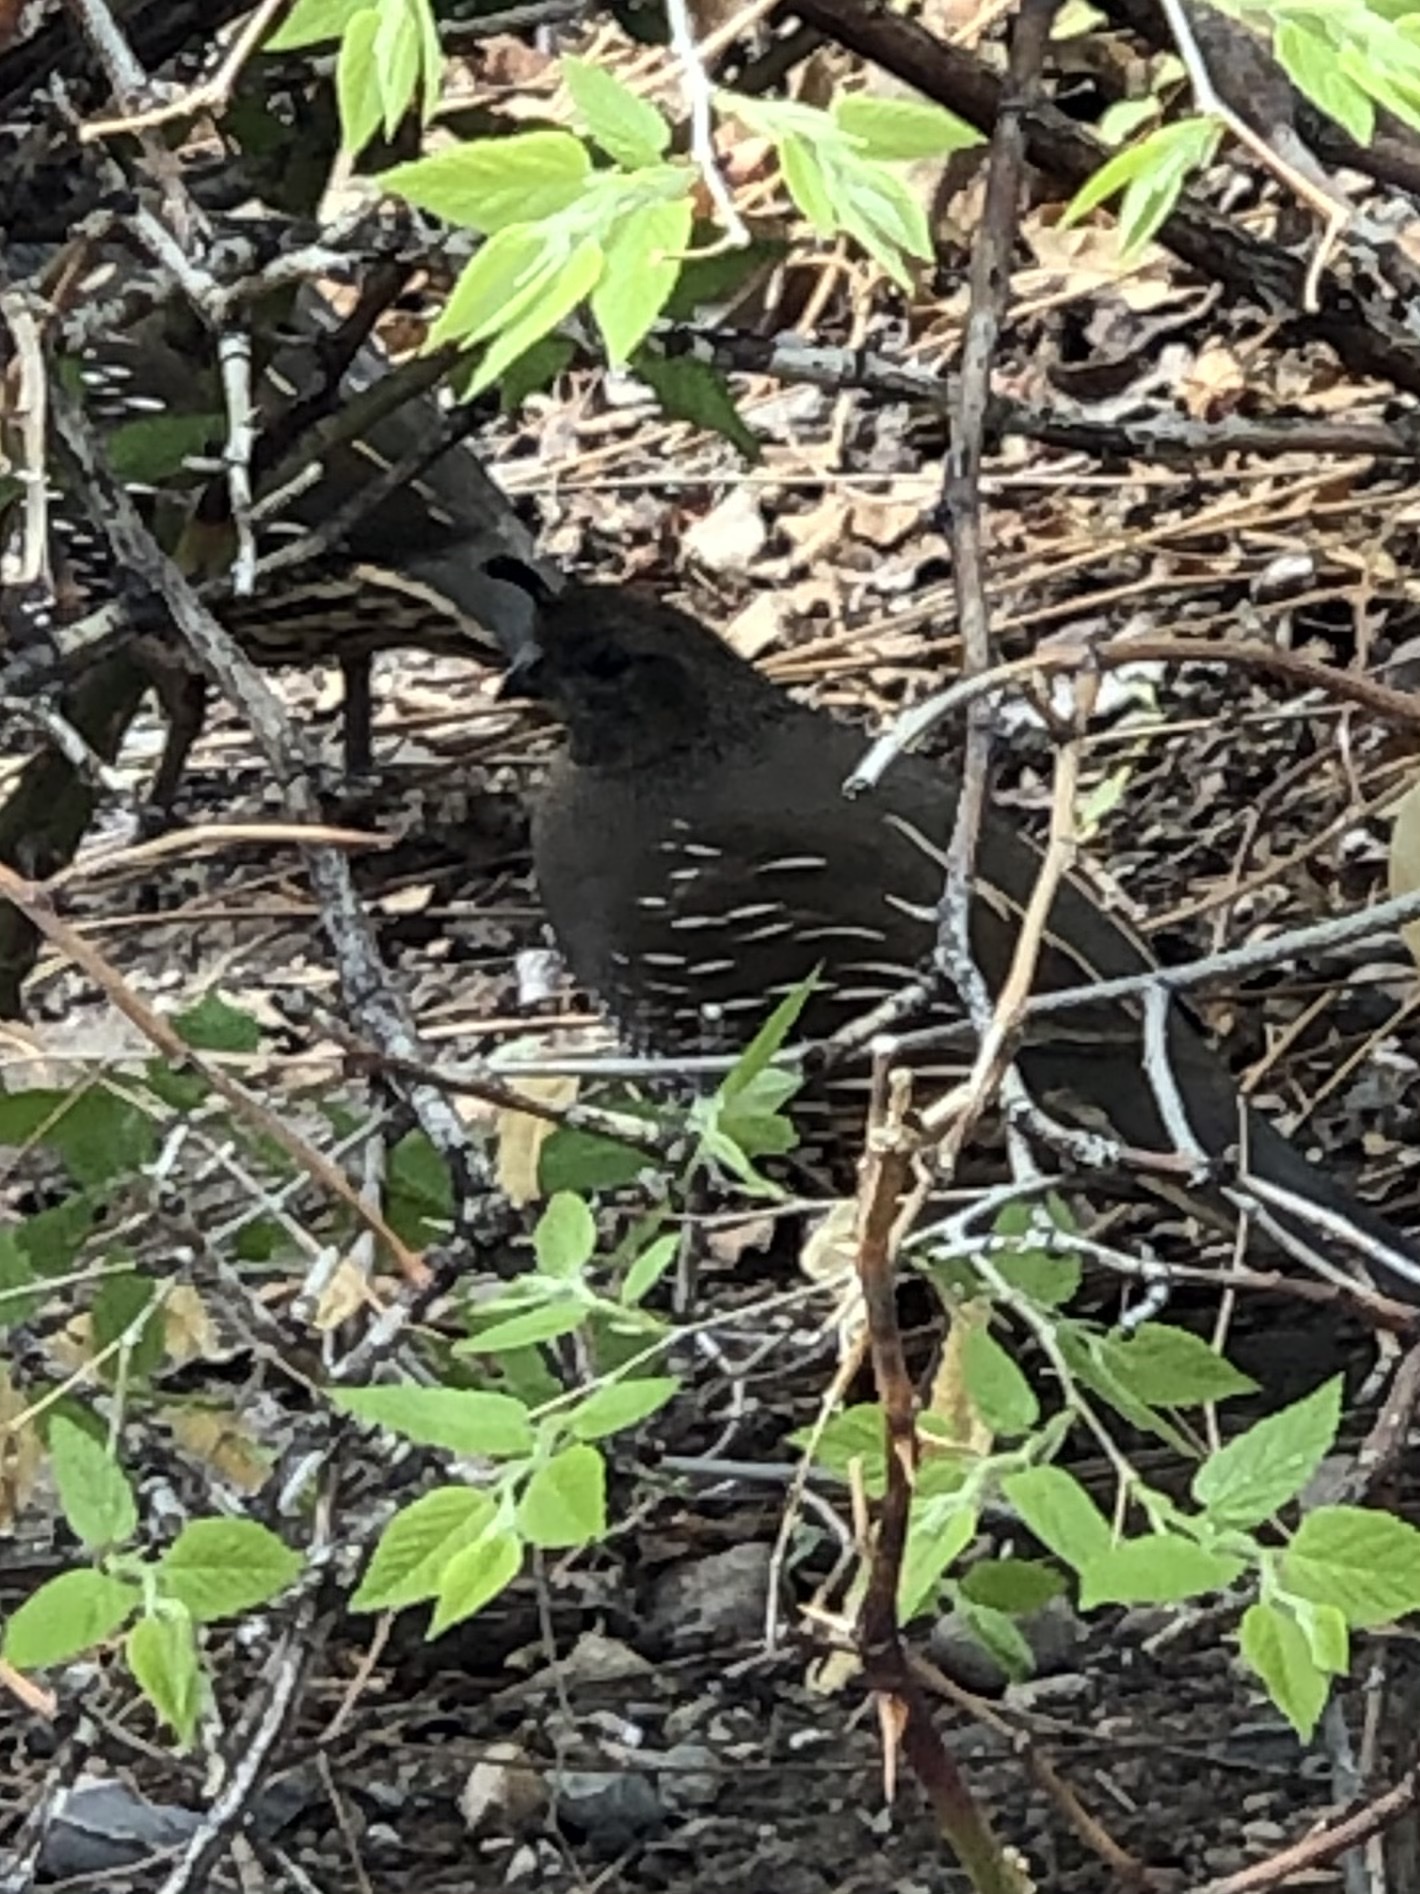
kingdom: Animalia
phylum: Chordata
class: Aves
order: Galliformes
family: Odontophoridae
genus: Callipepla
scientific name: Callipepla californica
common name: California quail
